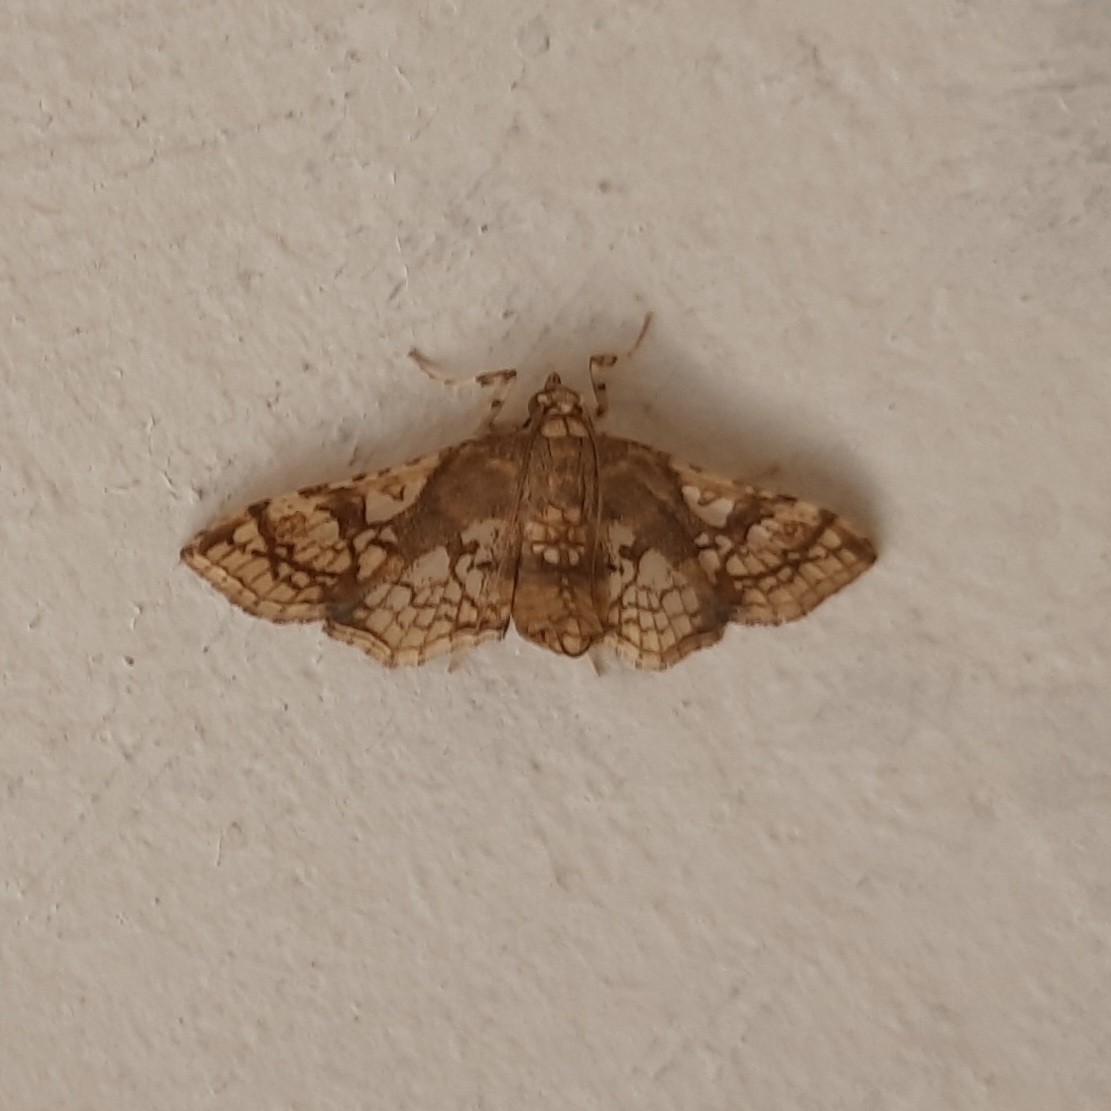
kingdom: Animalia
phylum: Arthropoda
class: Insecta
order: Lepidoptera
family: Crambidae
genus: Omphisa
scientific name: Omphisa anastomosalis
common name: Sweetpotato vineborer
